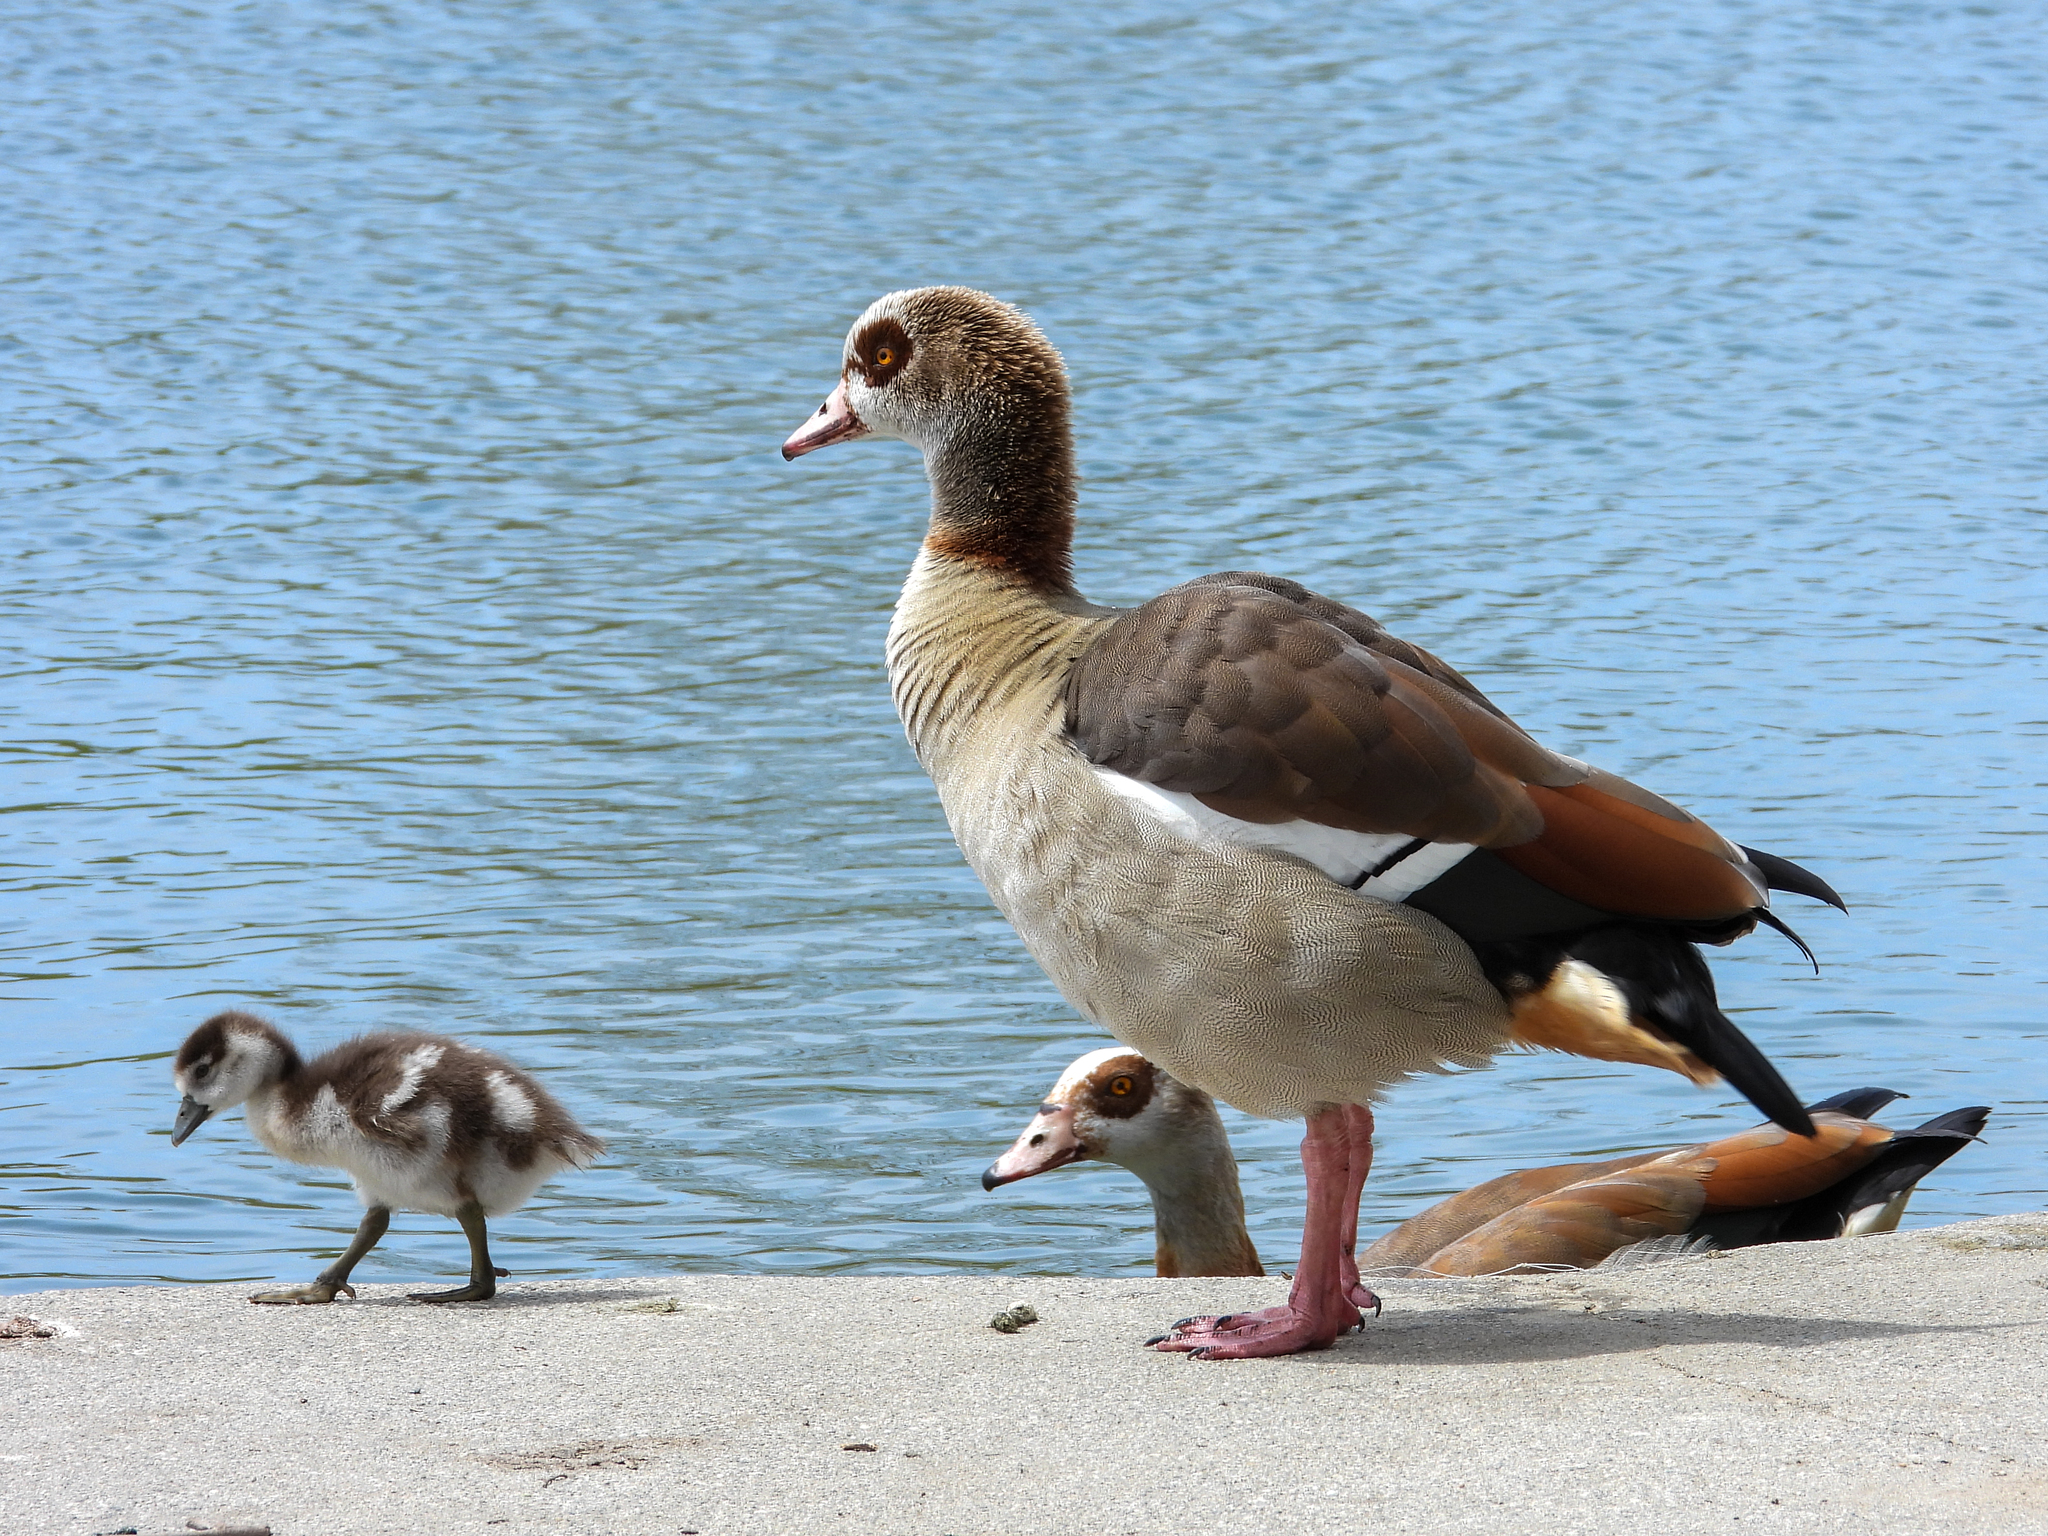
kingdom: Animalia
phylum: Chordata
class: Aves
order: Anseriformes
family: Anatidae
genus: Alopochen
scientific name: Alopochen aegyptiaca
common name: Egyptian goose
